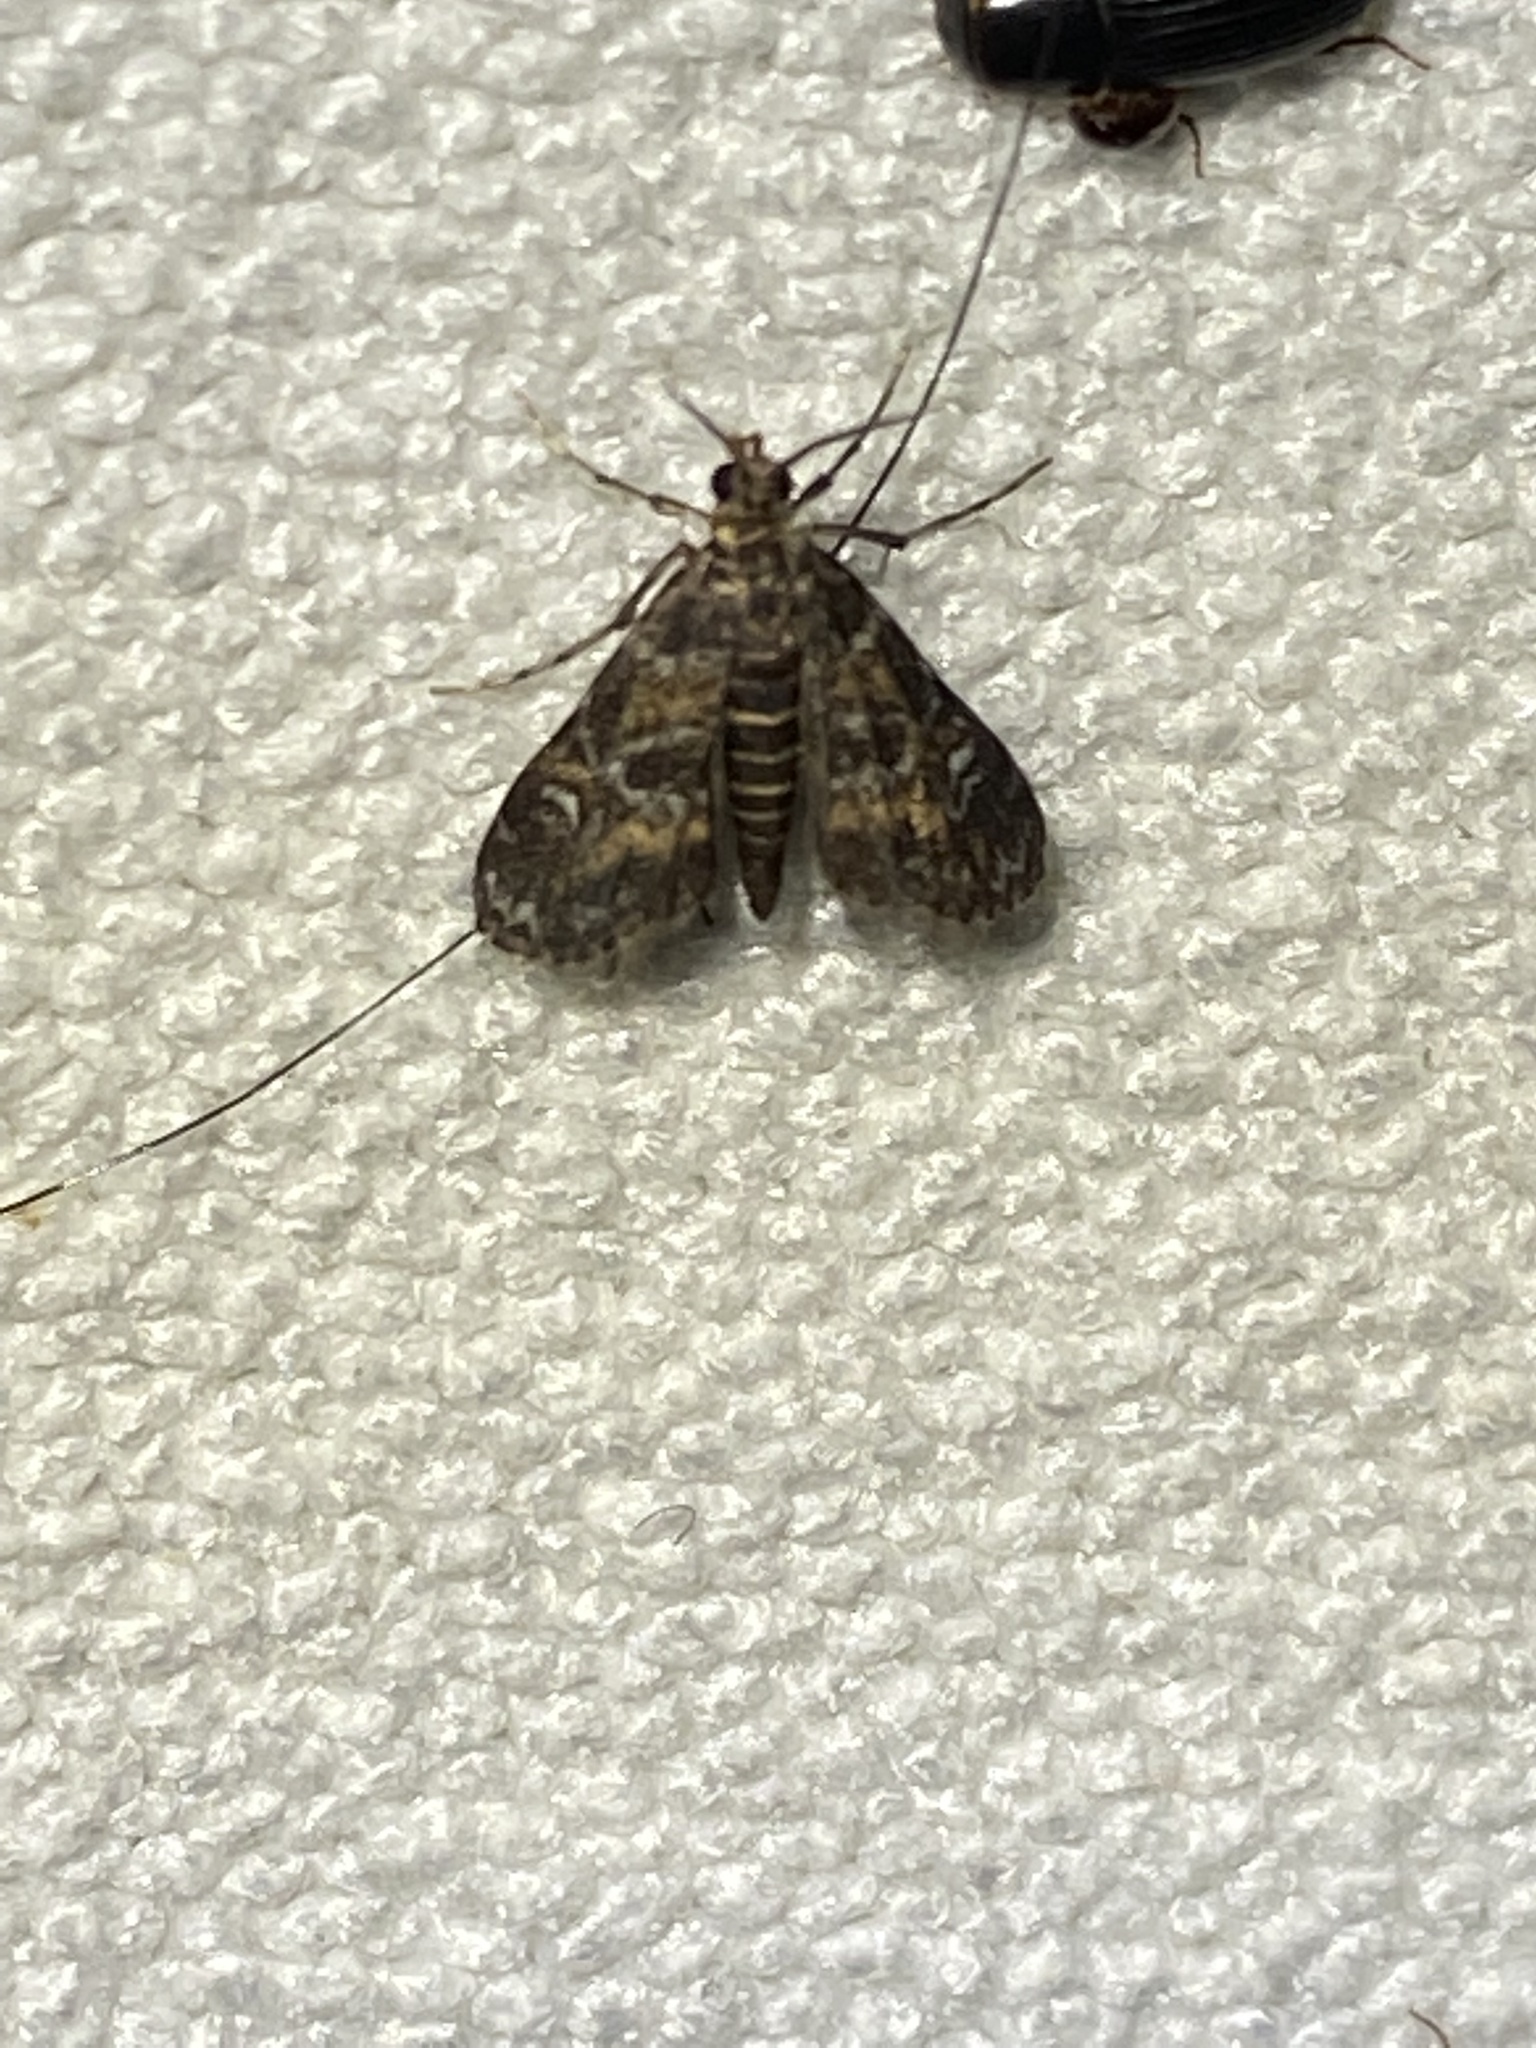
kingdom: Animalia
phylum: Arthropoda
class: Insecta
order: Lepidoptera
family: Crambidae
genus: Elophila
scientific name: Elophila obliteralis
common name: Waterlily leafcutter moth
